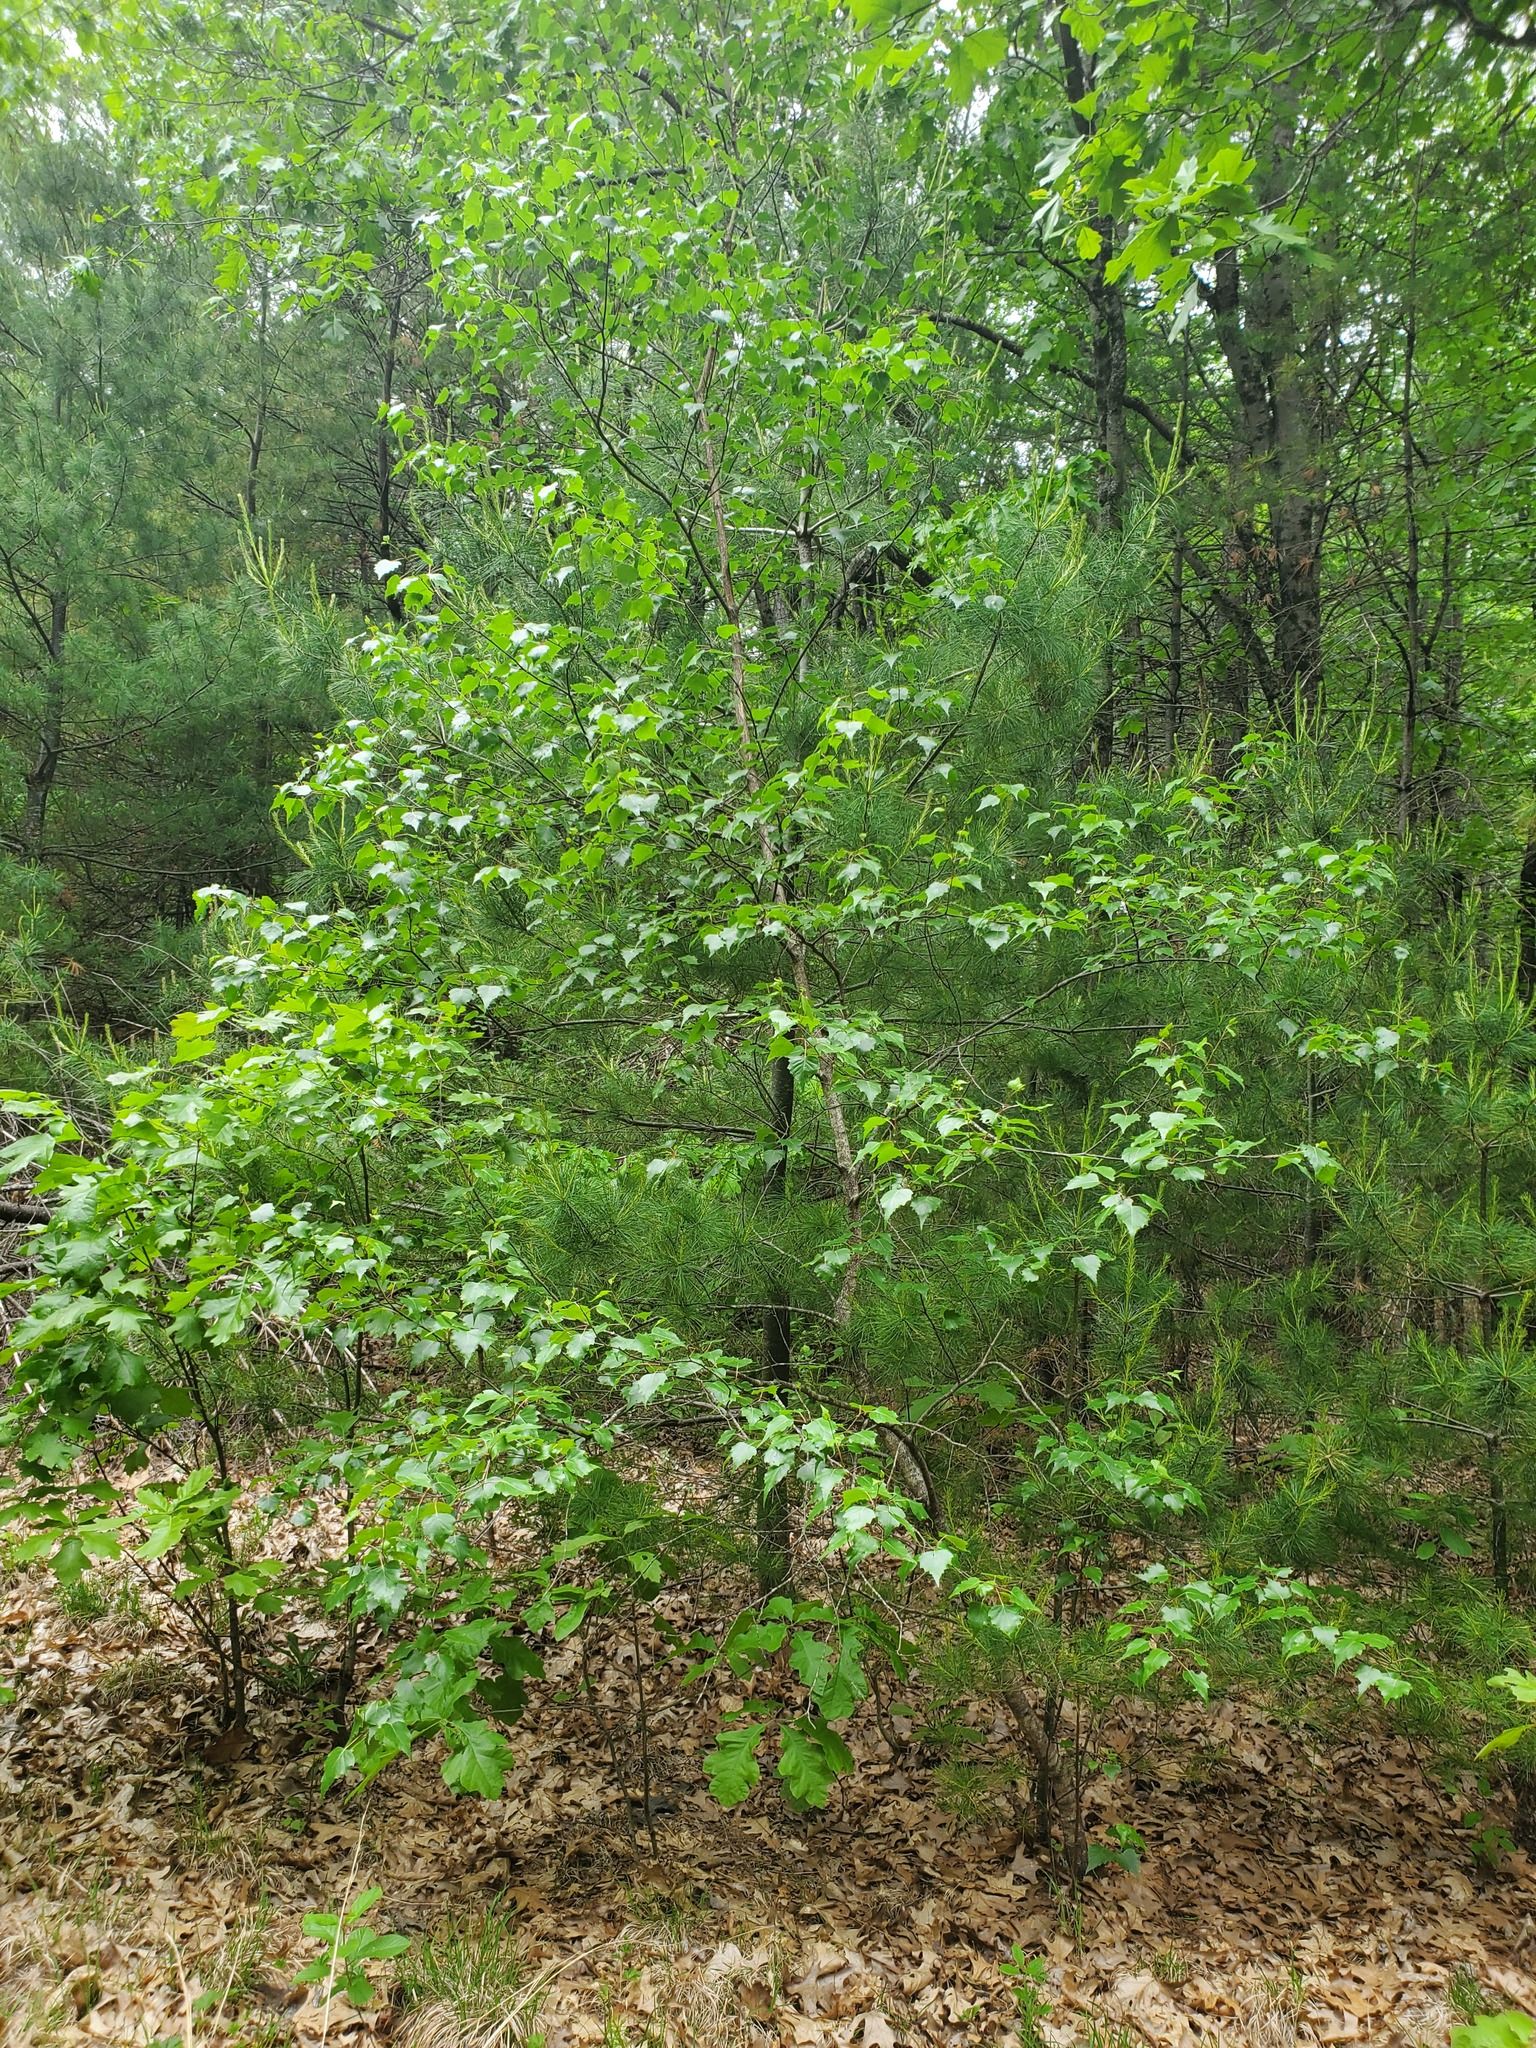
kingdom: Plantae
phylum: Tracheophyta
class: Magnoliopsida
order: Fagales
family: Betulaceae
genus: Betula
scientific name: Betula populifolia
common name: Fire birch
